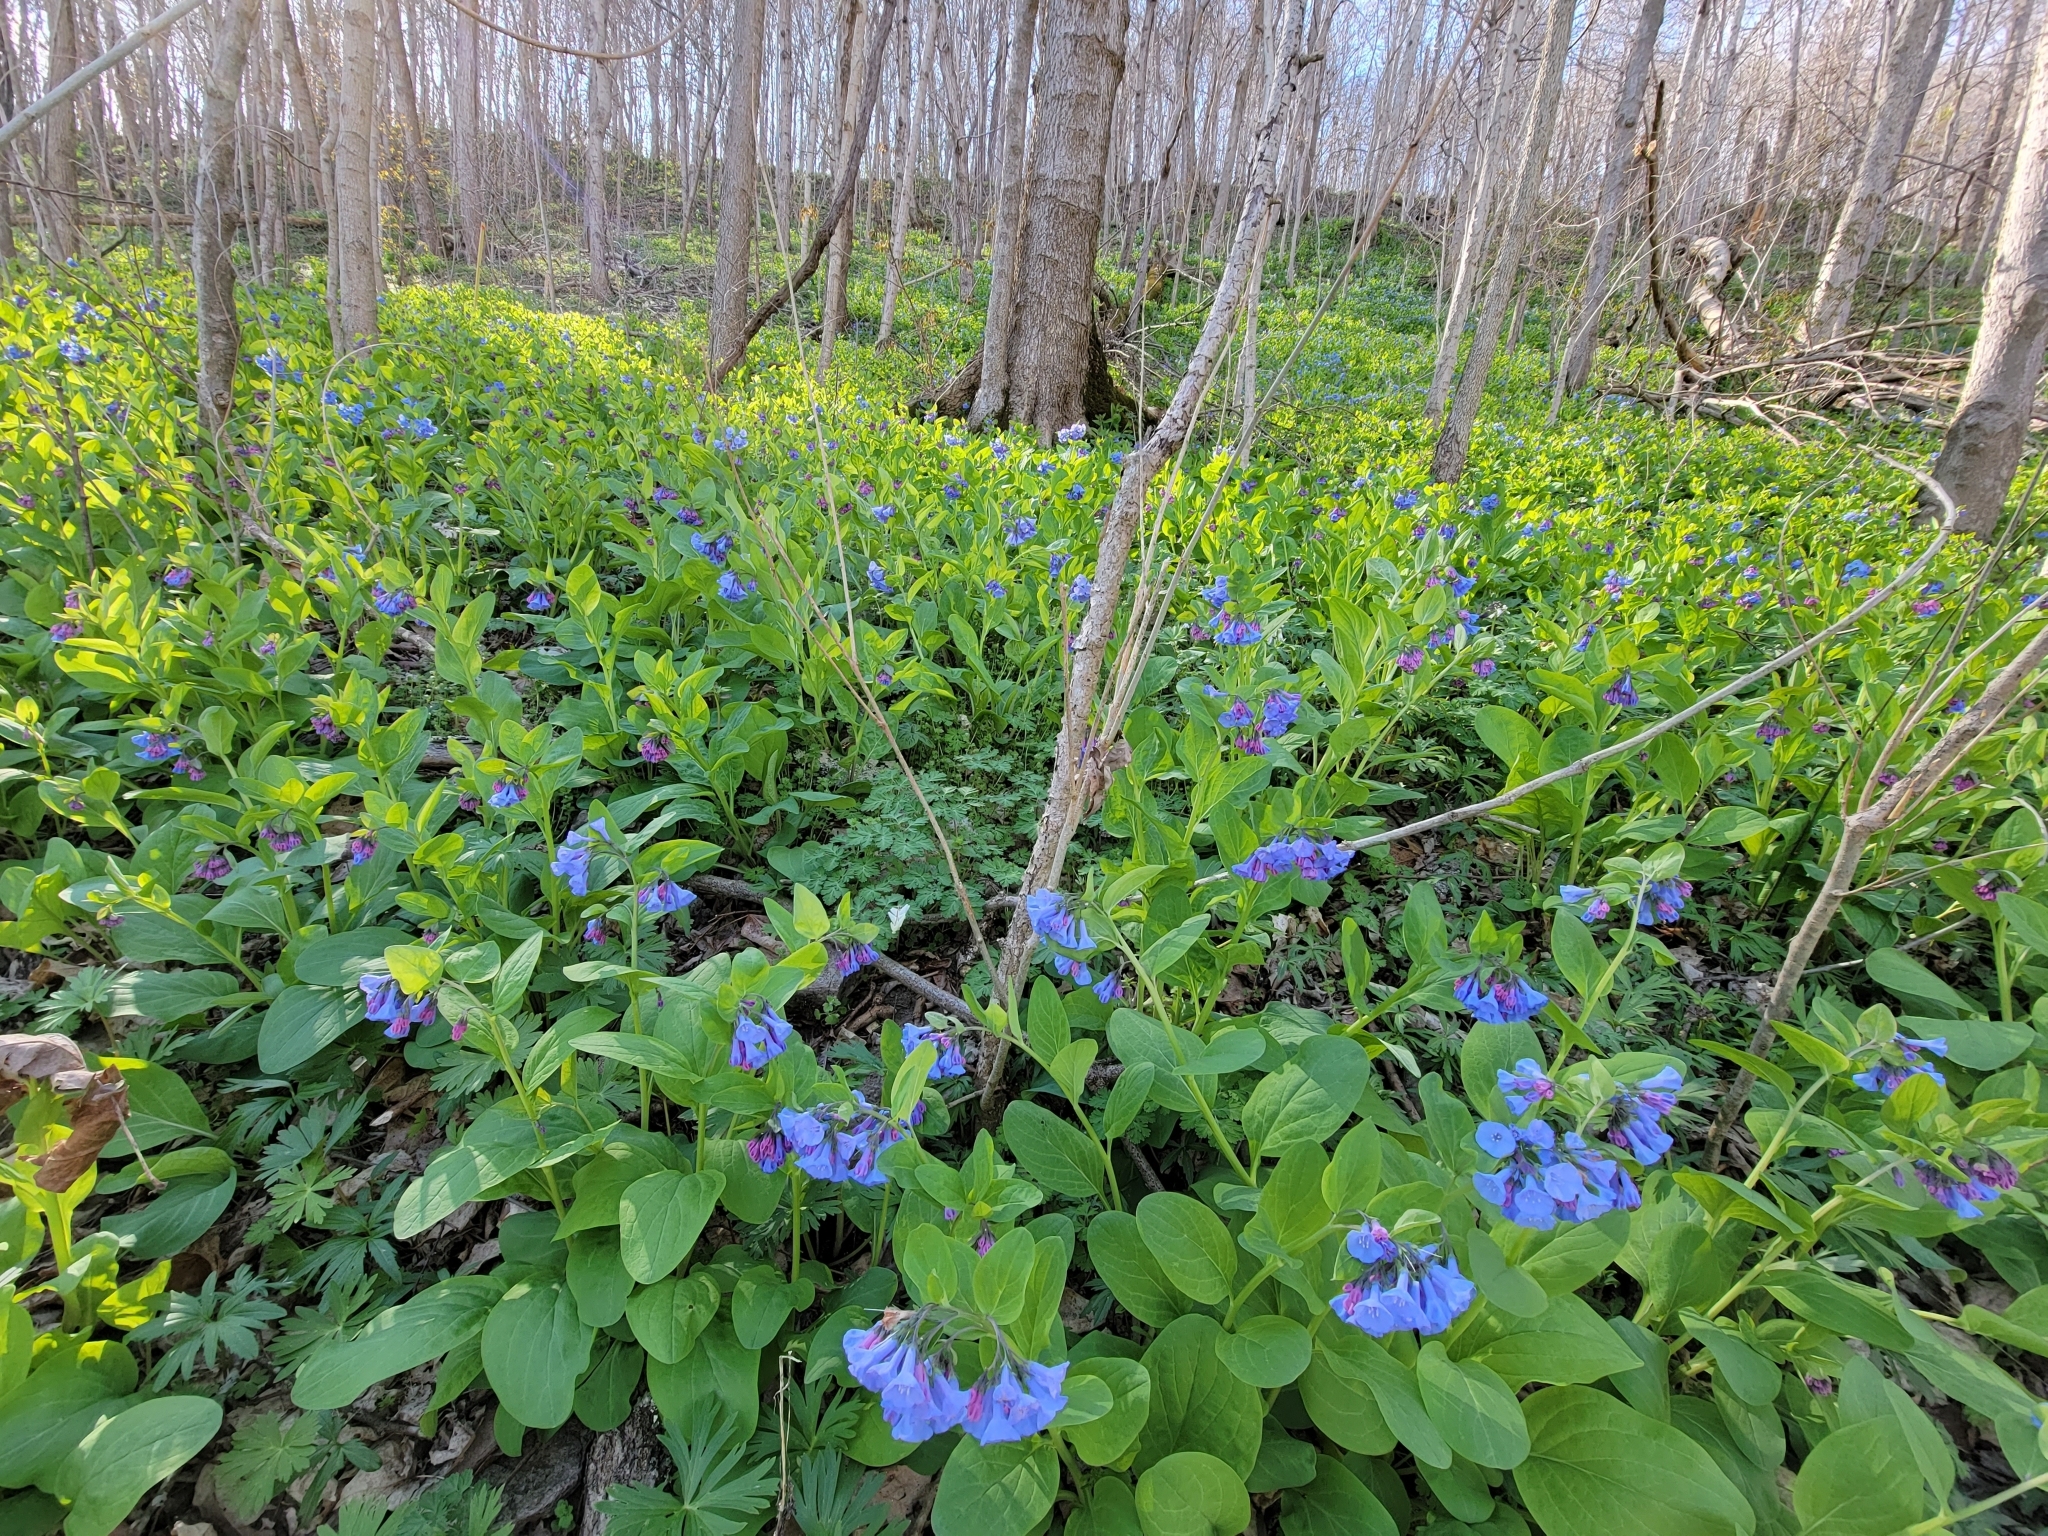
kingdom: Plantae
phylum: Tracheophyta
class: Magnoliopsida
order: Boraginales
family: Boraginaceae
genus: Mertensia
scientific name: Mertensia virginica
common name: Virginia bluebells
